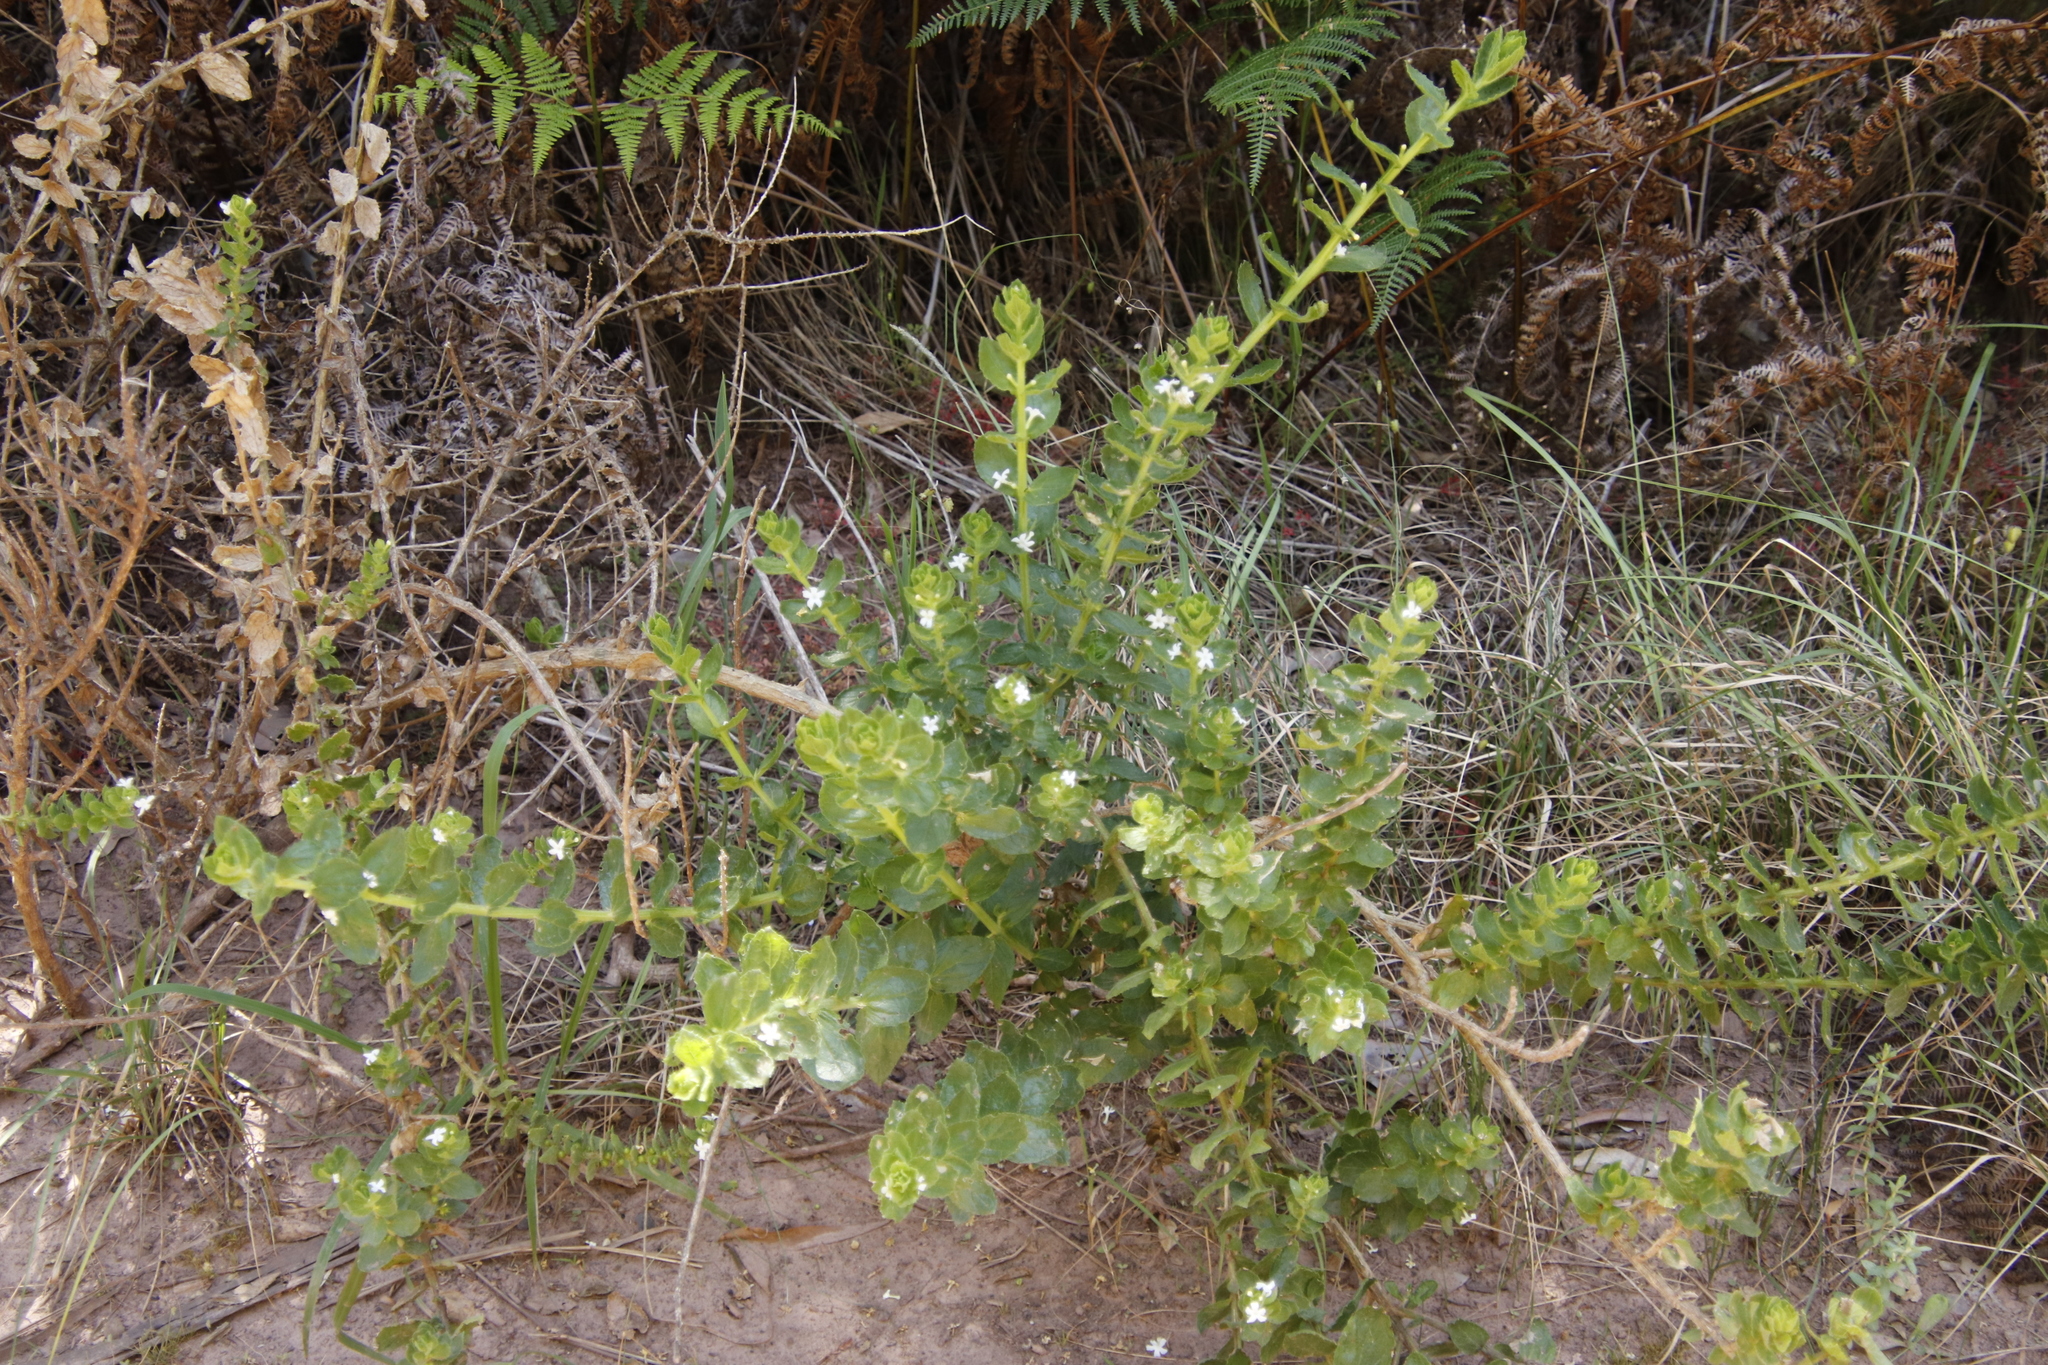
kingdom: Plantae
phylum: Tracheophyta
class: Magnoliopsida
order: Lamiales
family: Scrophulariaceae
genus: Oftia
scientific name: Oftia africana
